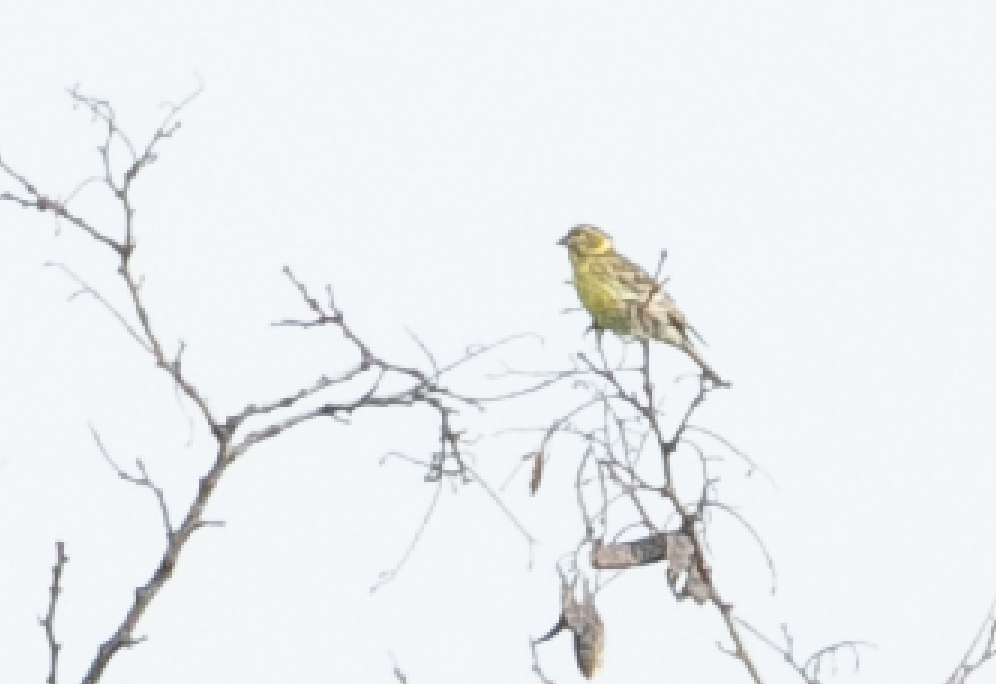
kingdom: Animalia
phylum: Chordata
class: Aves
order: Passeriformes
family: Fringillidae
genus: Serinus
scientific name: Serinus serinus
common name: European serin
